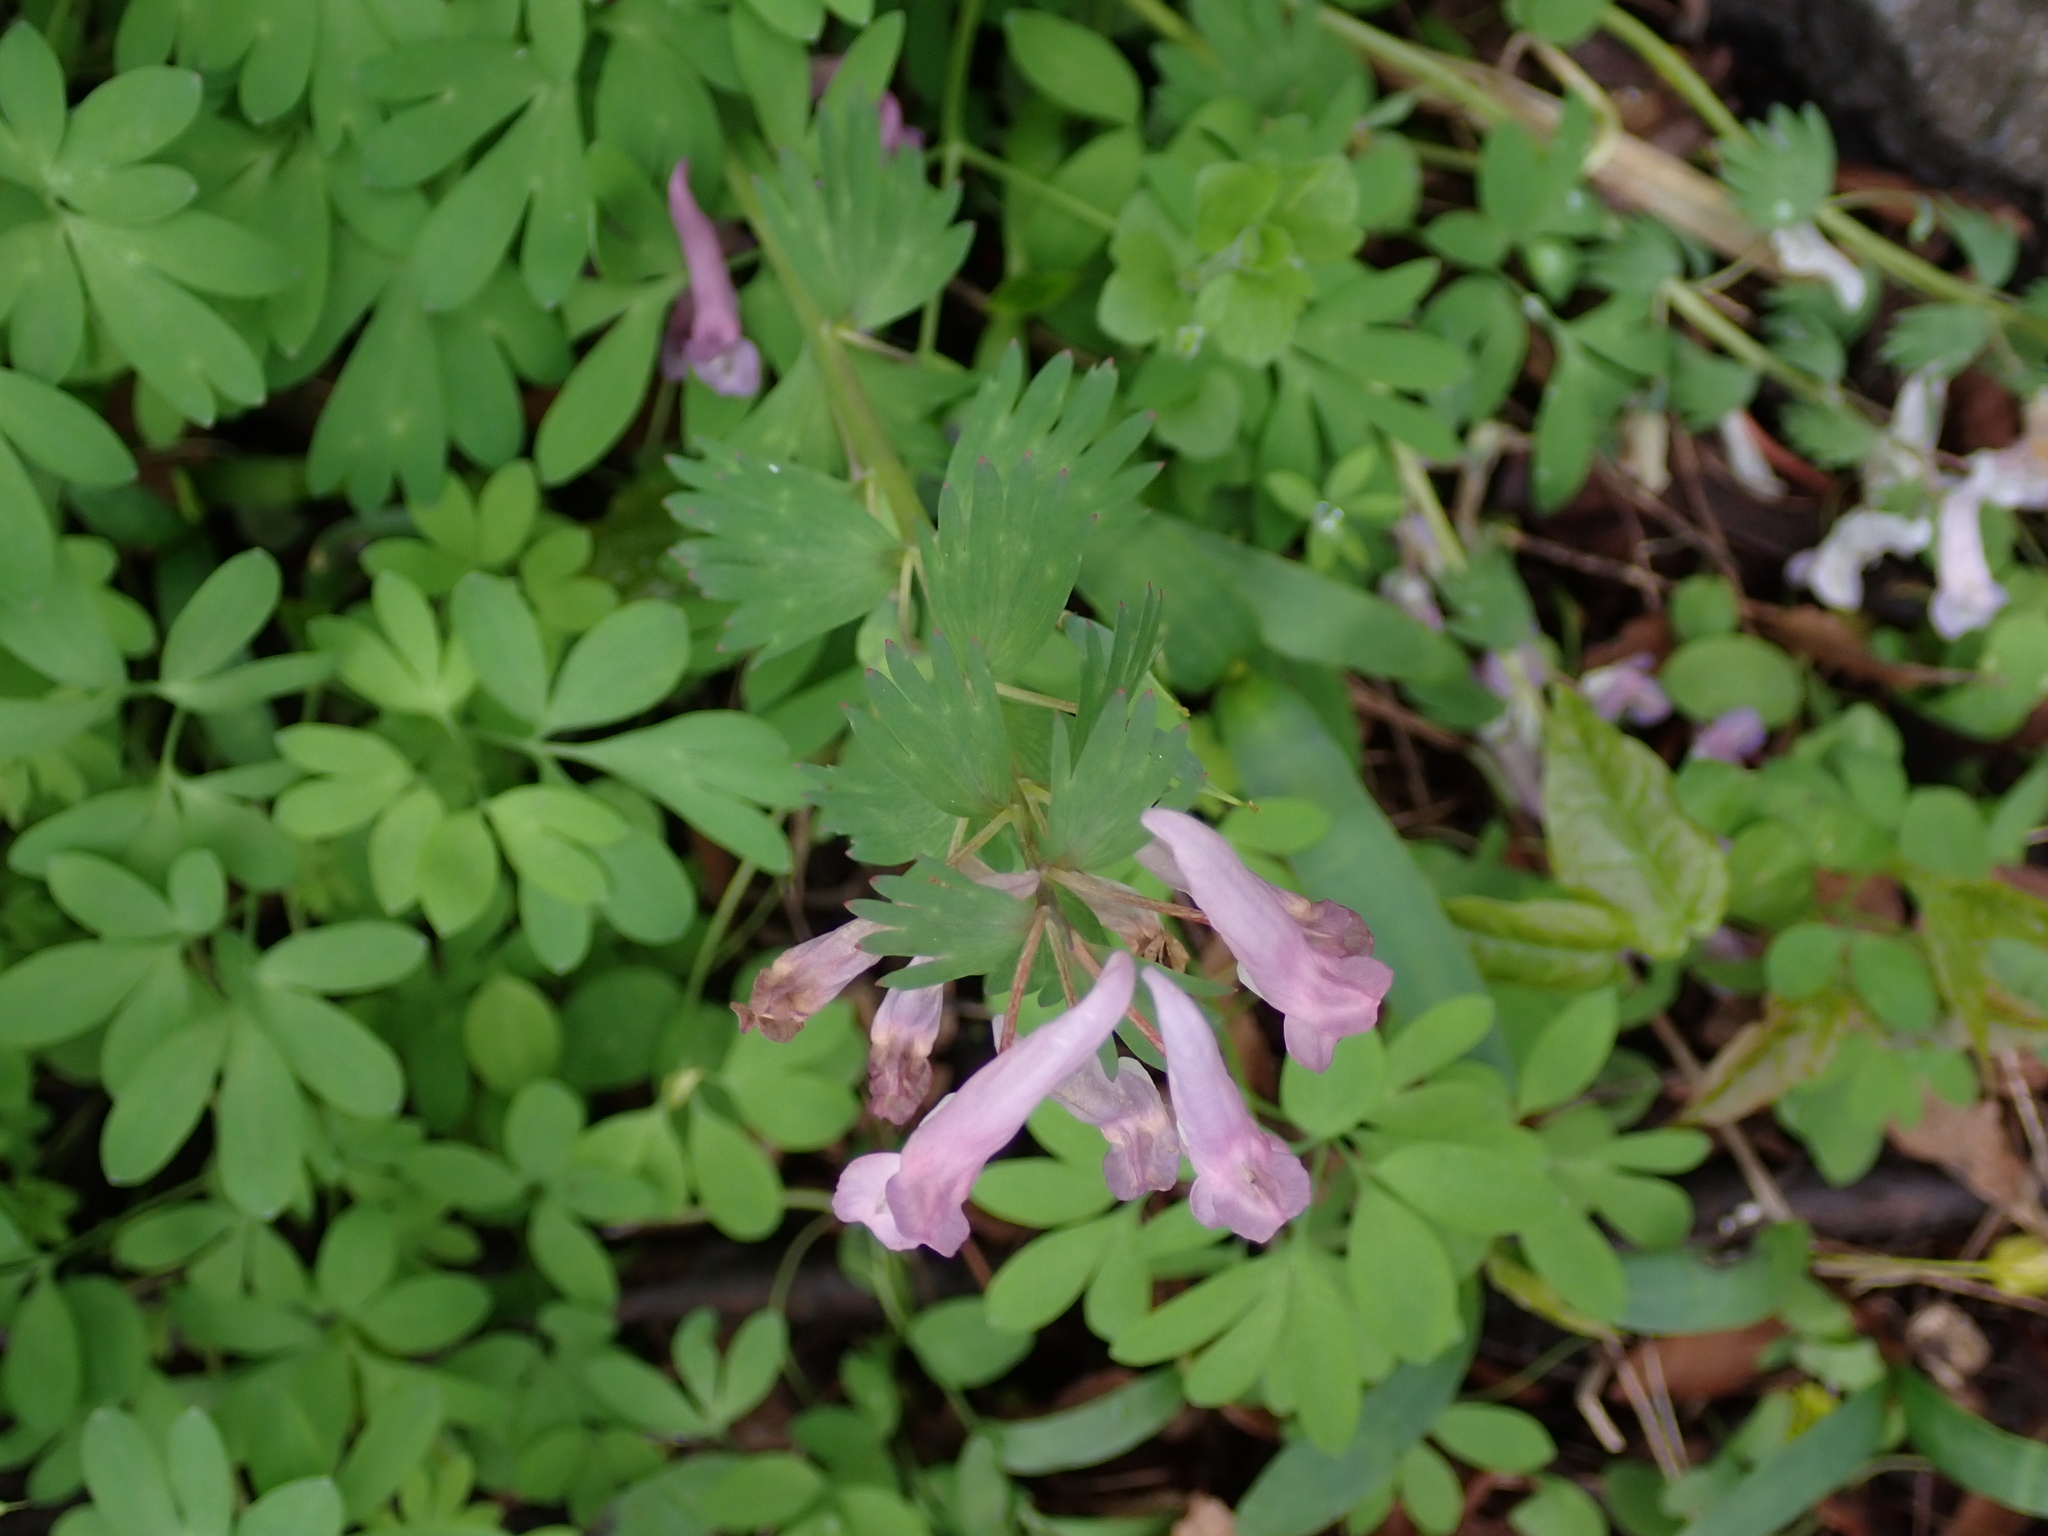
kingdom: Plantae
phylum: Tracheophyta
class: Magnoliopsida
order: Ranunculales
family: Papaveraceae
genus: Corydalis
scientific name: Corydalis solida
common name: Bird-in-a-bush
